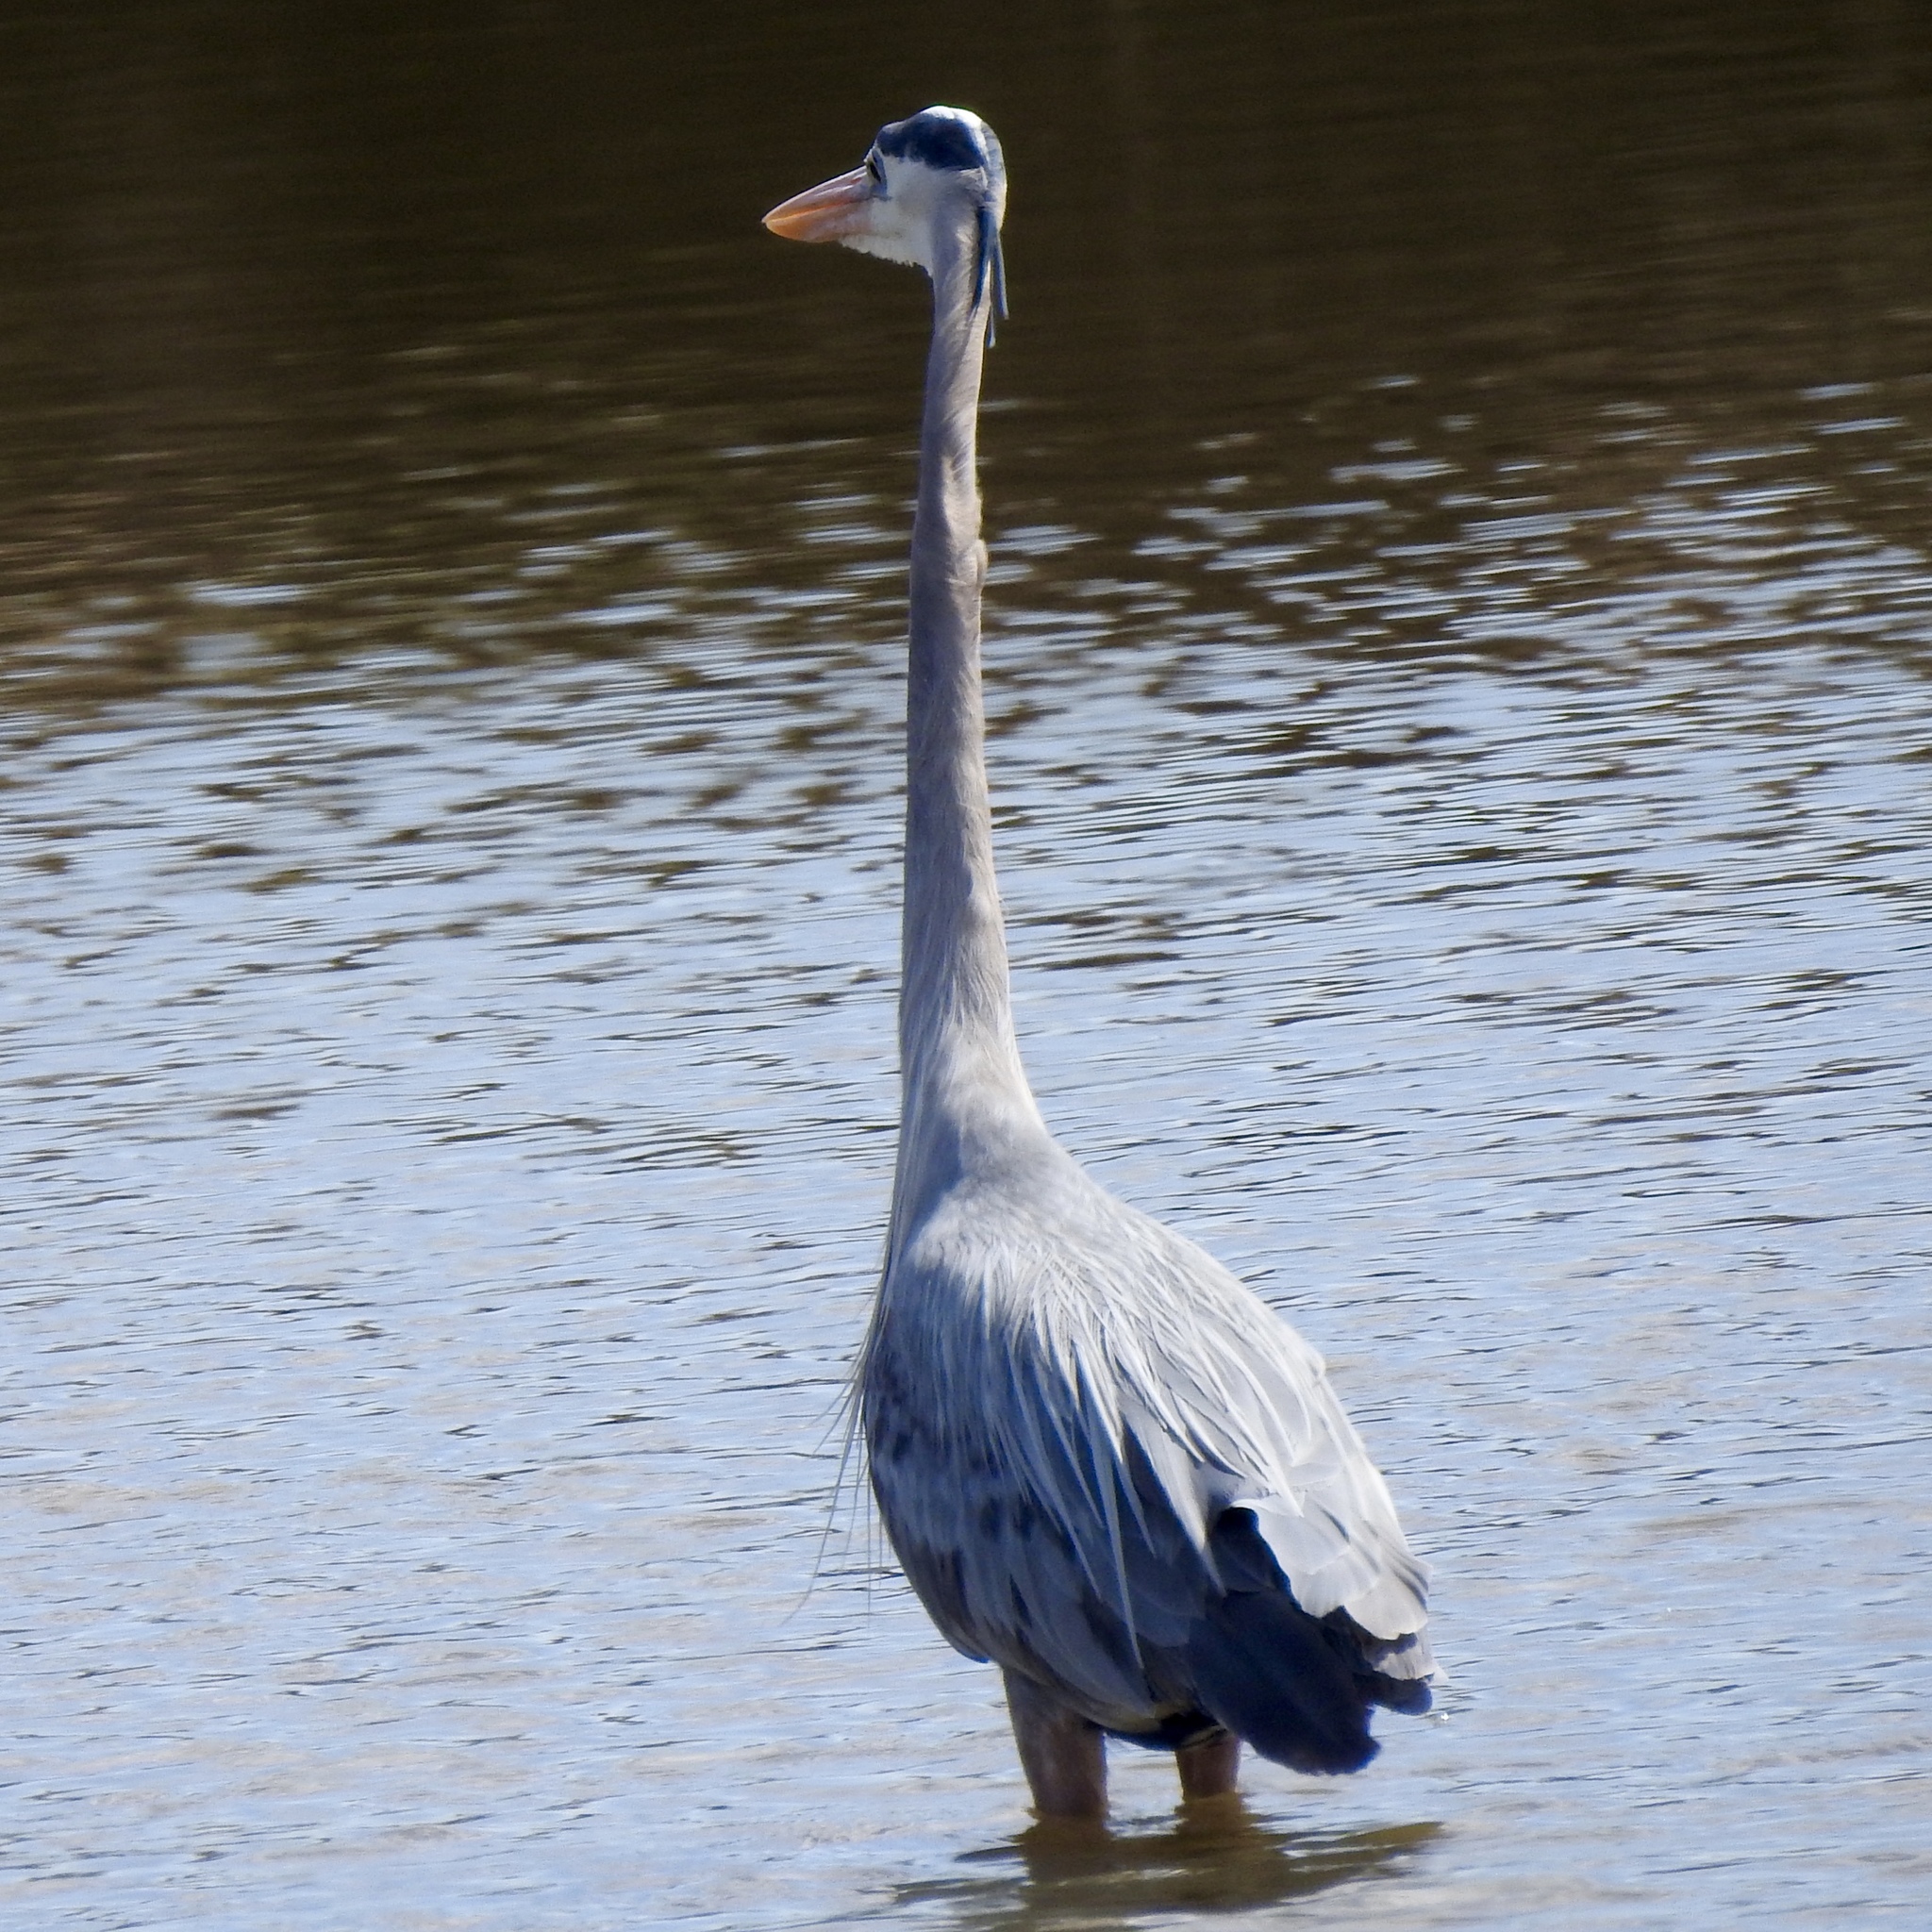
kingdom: Animalia
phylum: Chordata
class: Aves
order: Pelecaniformes
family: Ardeidae
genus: Ardea
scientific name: Ardea herodias
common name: Great blue heron
